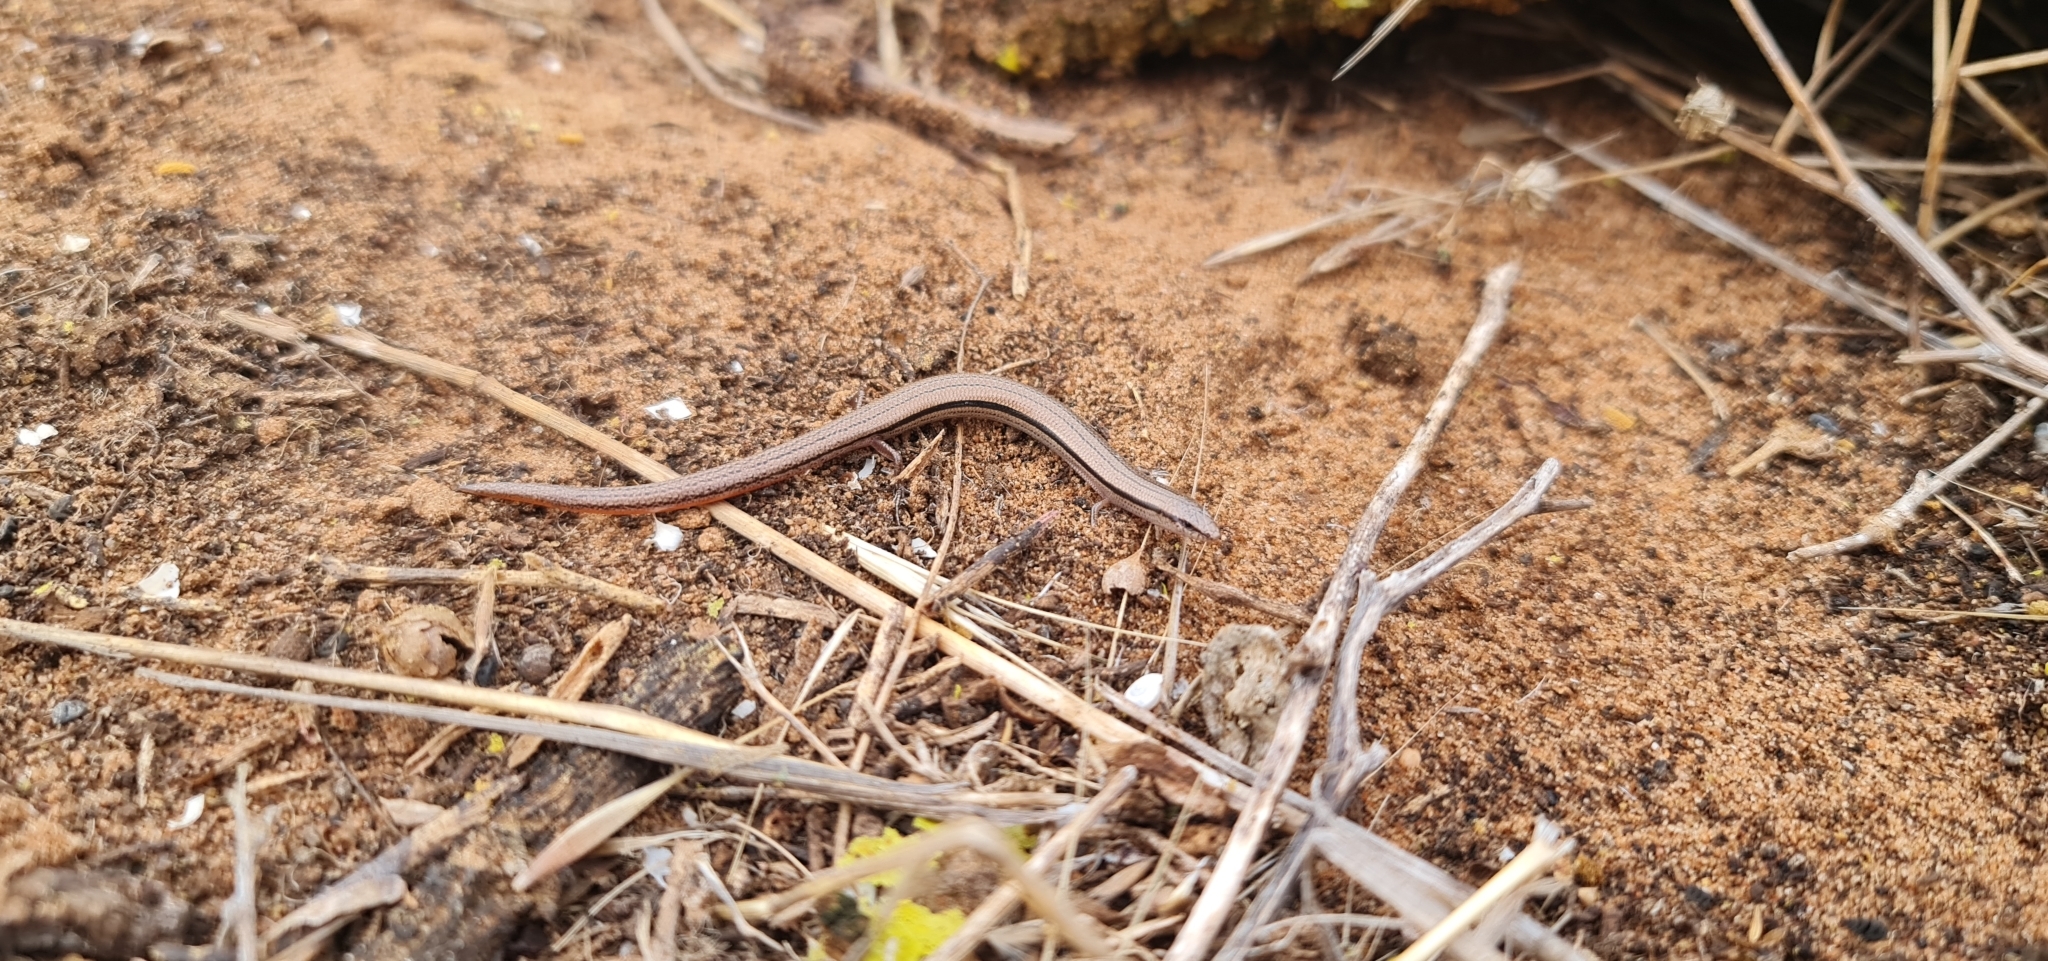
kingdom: Animalia
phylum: Chordata
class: Squamata
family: Scincidae
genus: Lerista
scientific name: Lerista dorsalis
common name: Southern slider
